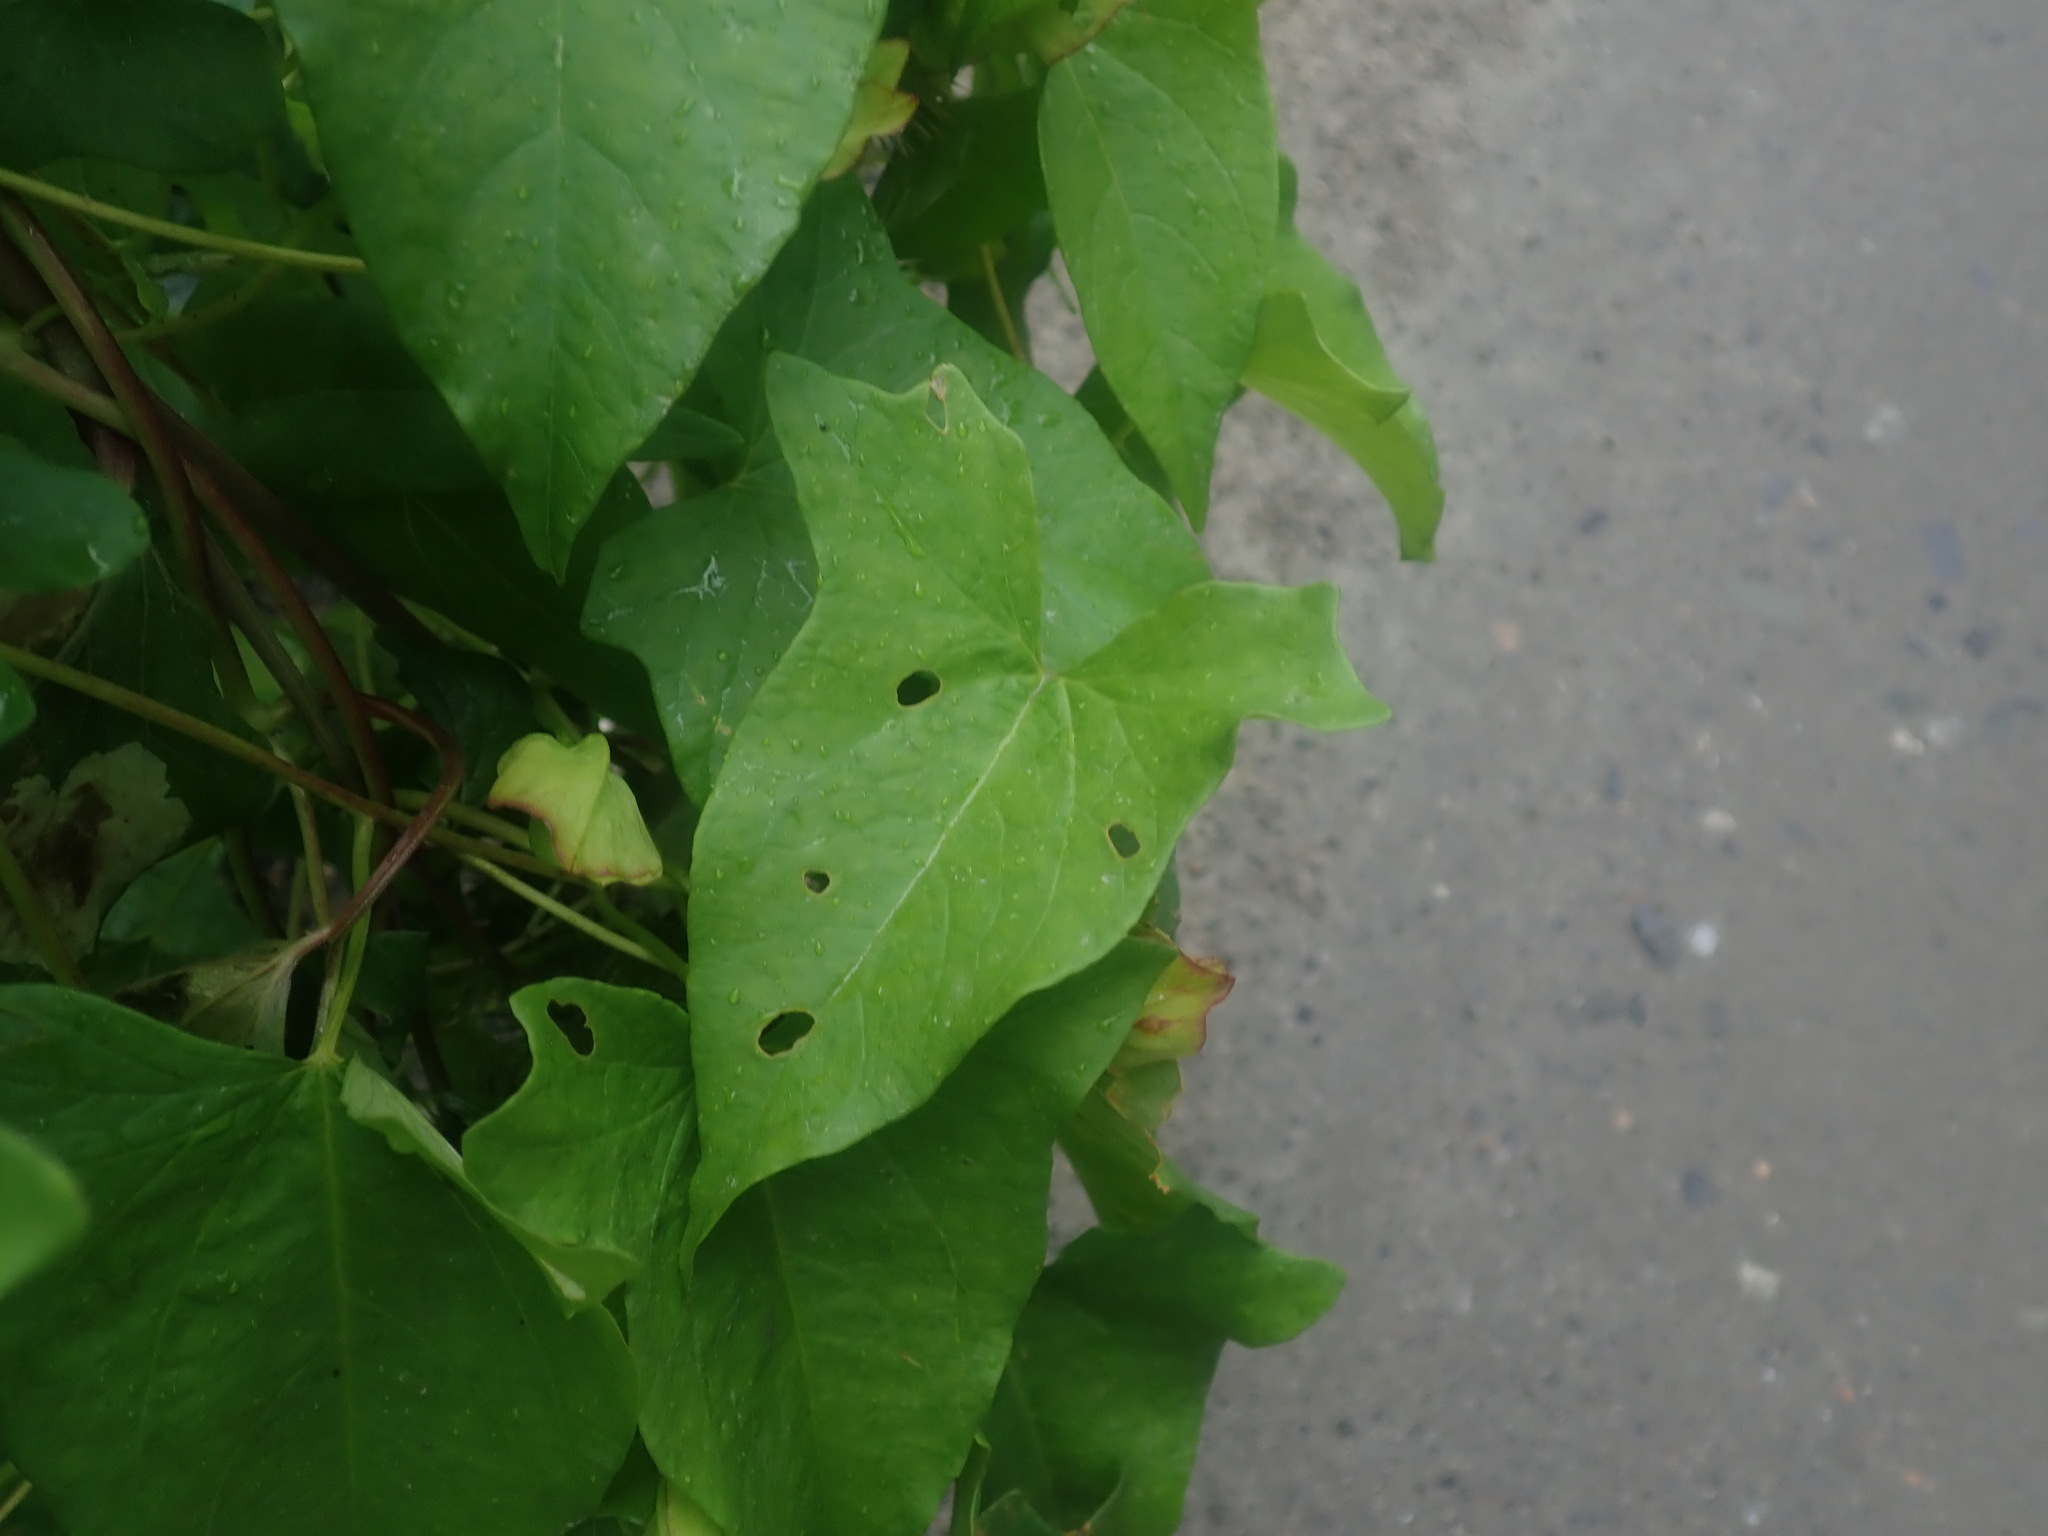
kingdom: Plantae
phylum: Tracheophyta
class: Magnoliopsida
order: Solanales
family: Convolvulaceae
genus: Calystegia
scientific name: Calystegia sepium
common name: Hedge bindweed
